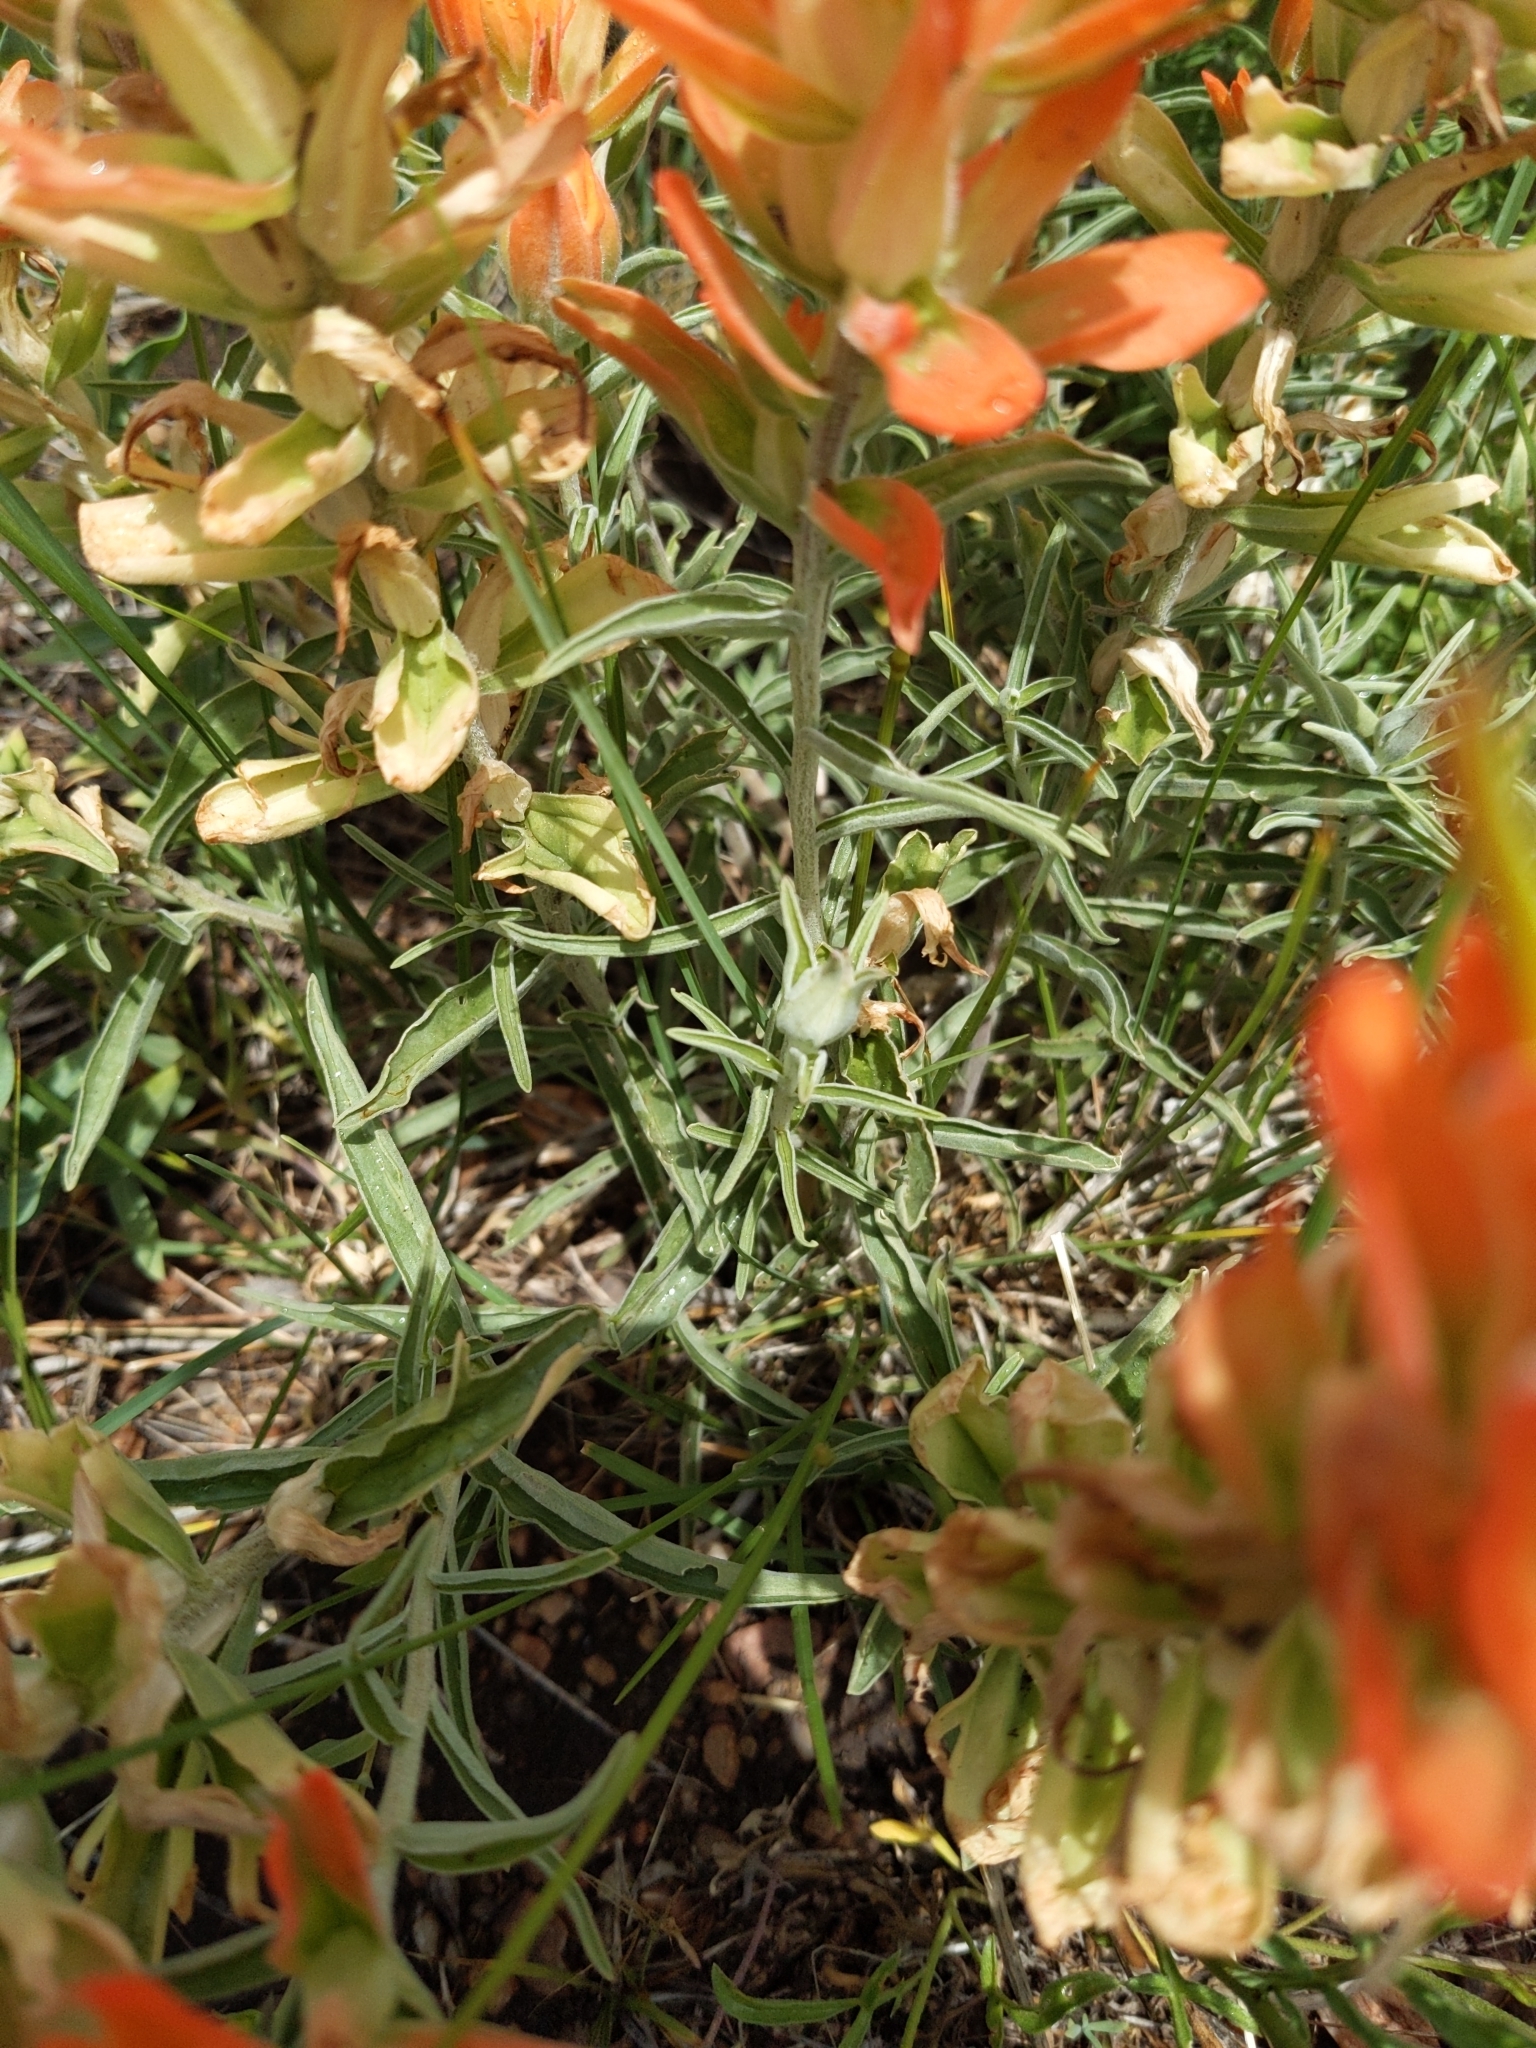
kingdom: Plantae
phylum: Tracheophyta
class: Magnoliopsida
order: Lamiales
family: Orobanchaceae
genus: Castilleja
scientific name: Castilleja integra
